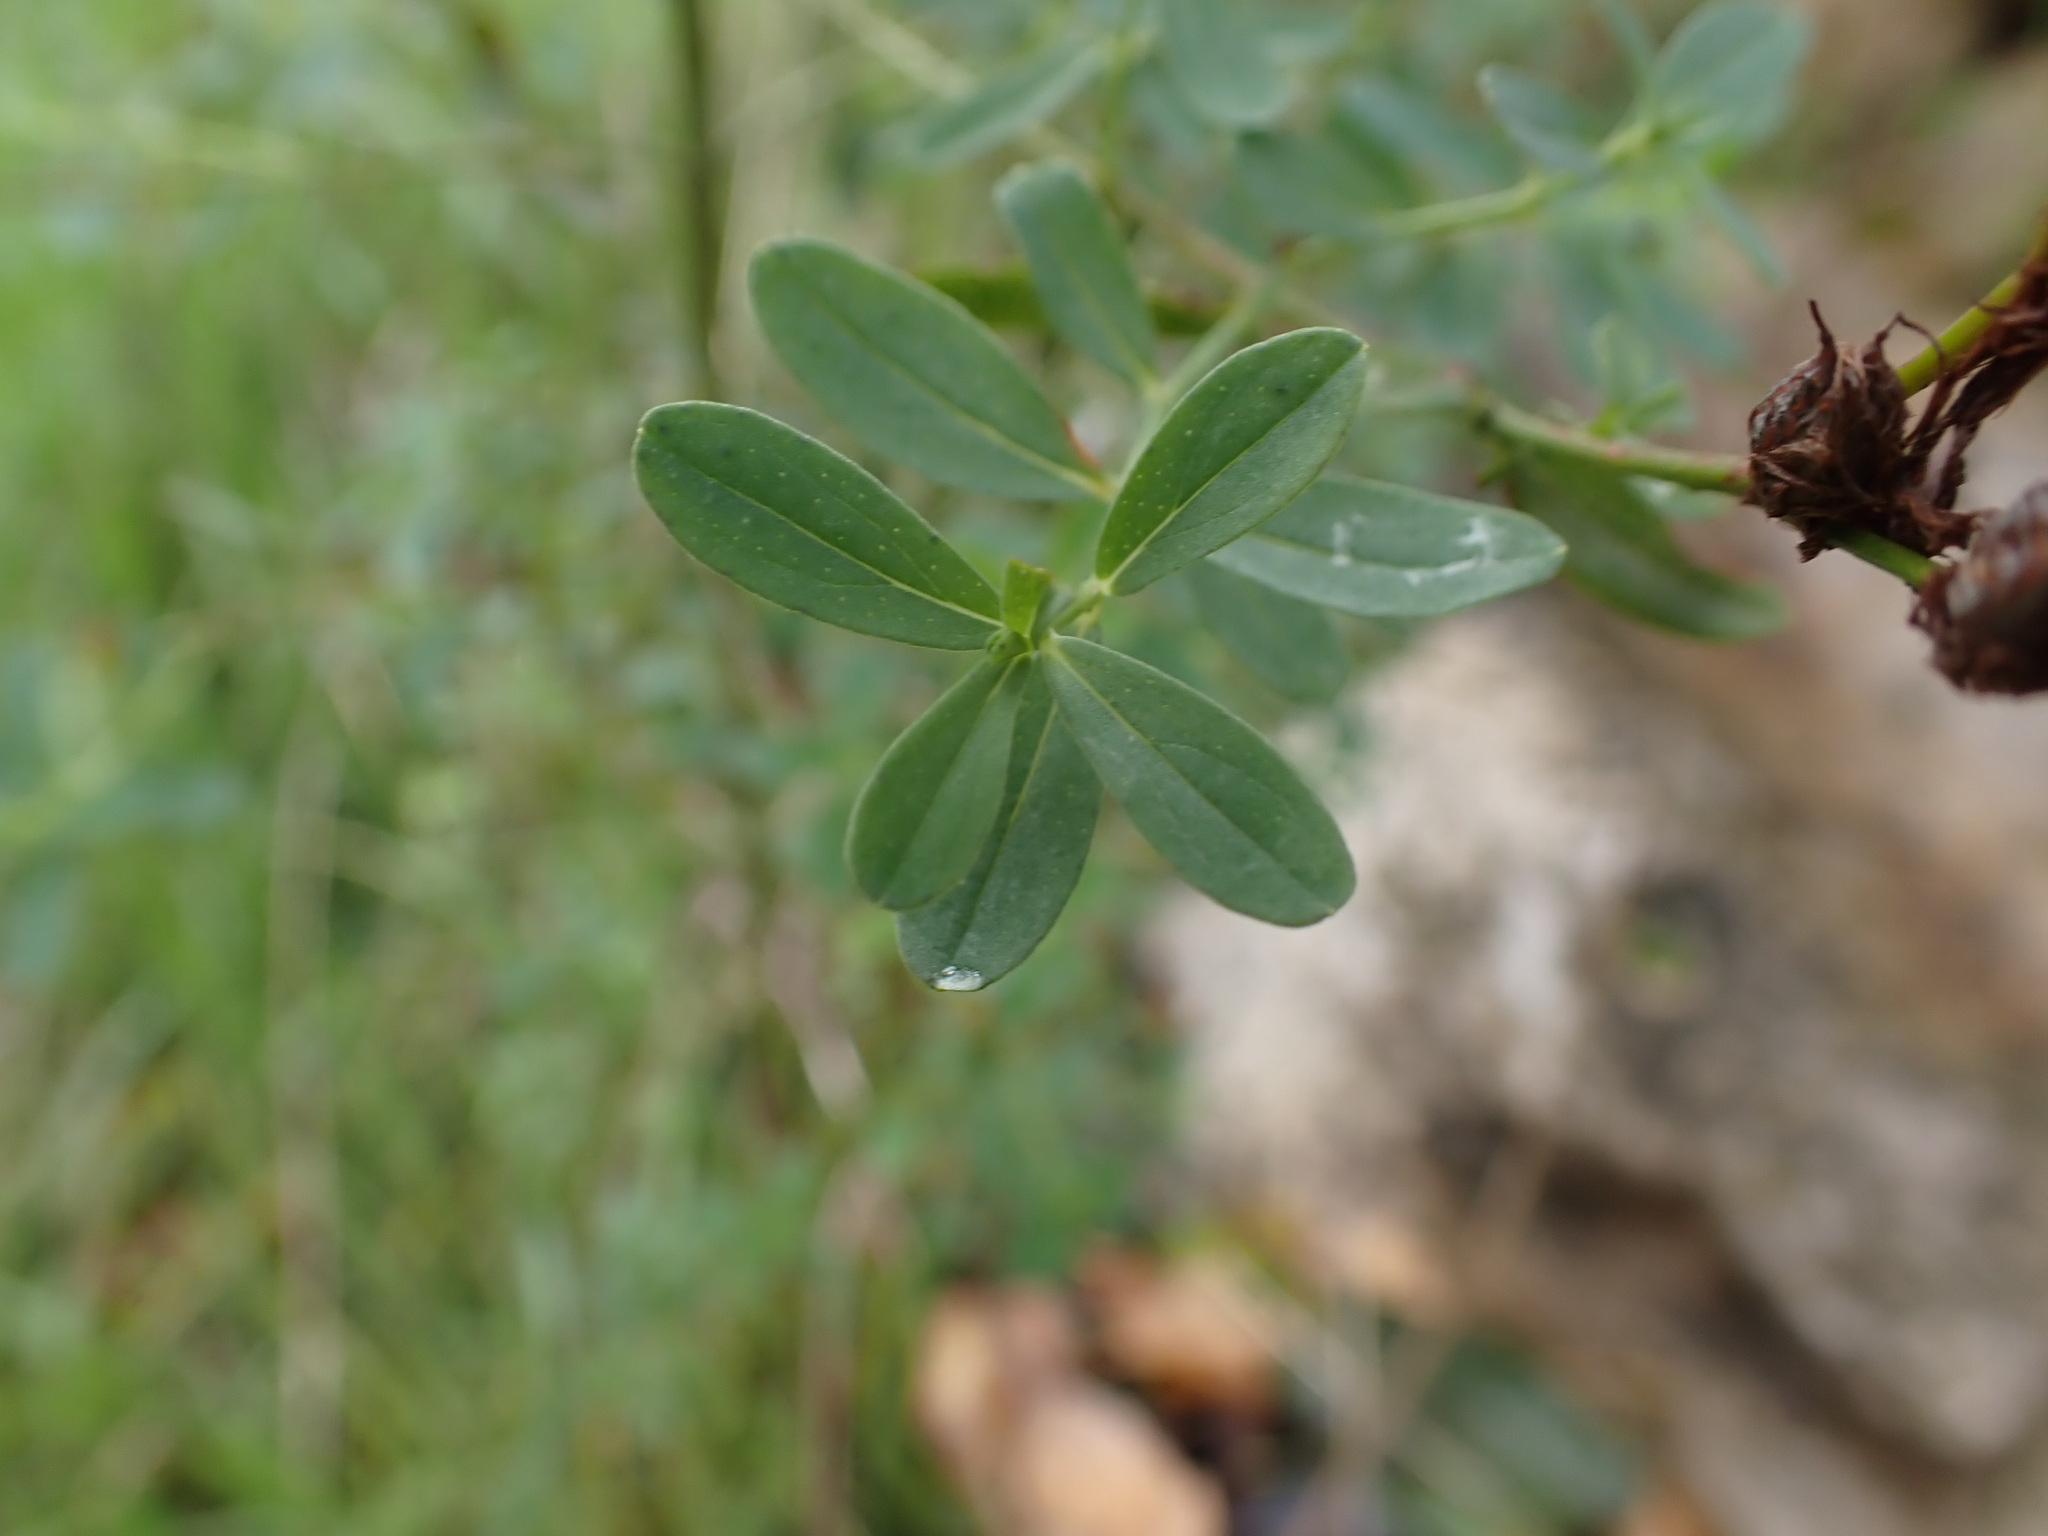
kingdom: Plantae
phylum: Tracheophyta
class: Magnoliopsida
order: Malpighiales
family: Hypericaceae
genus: Hypericum
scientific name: Hypericum perforatum
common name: Common st. johnswort
